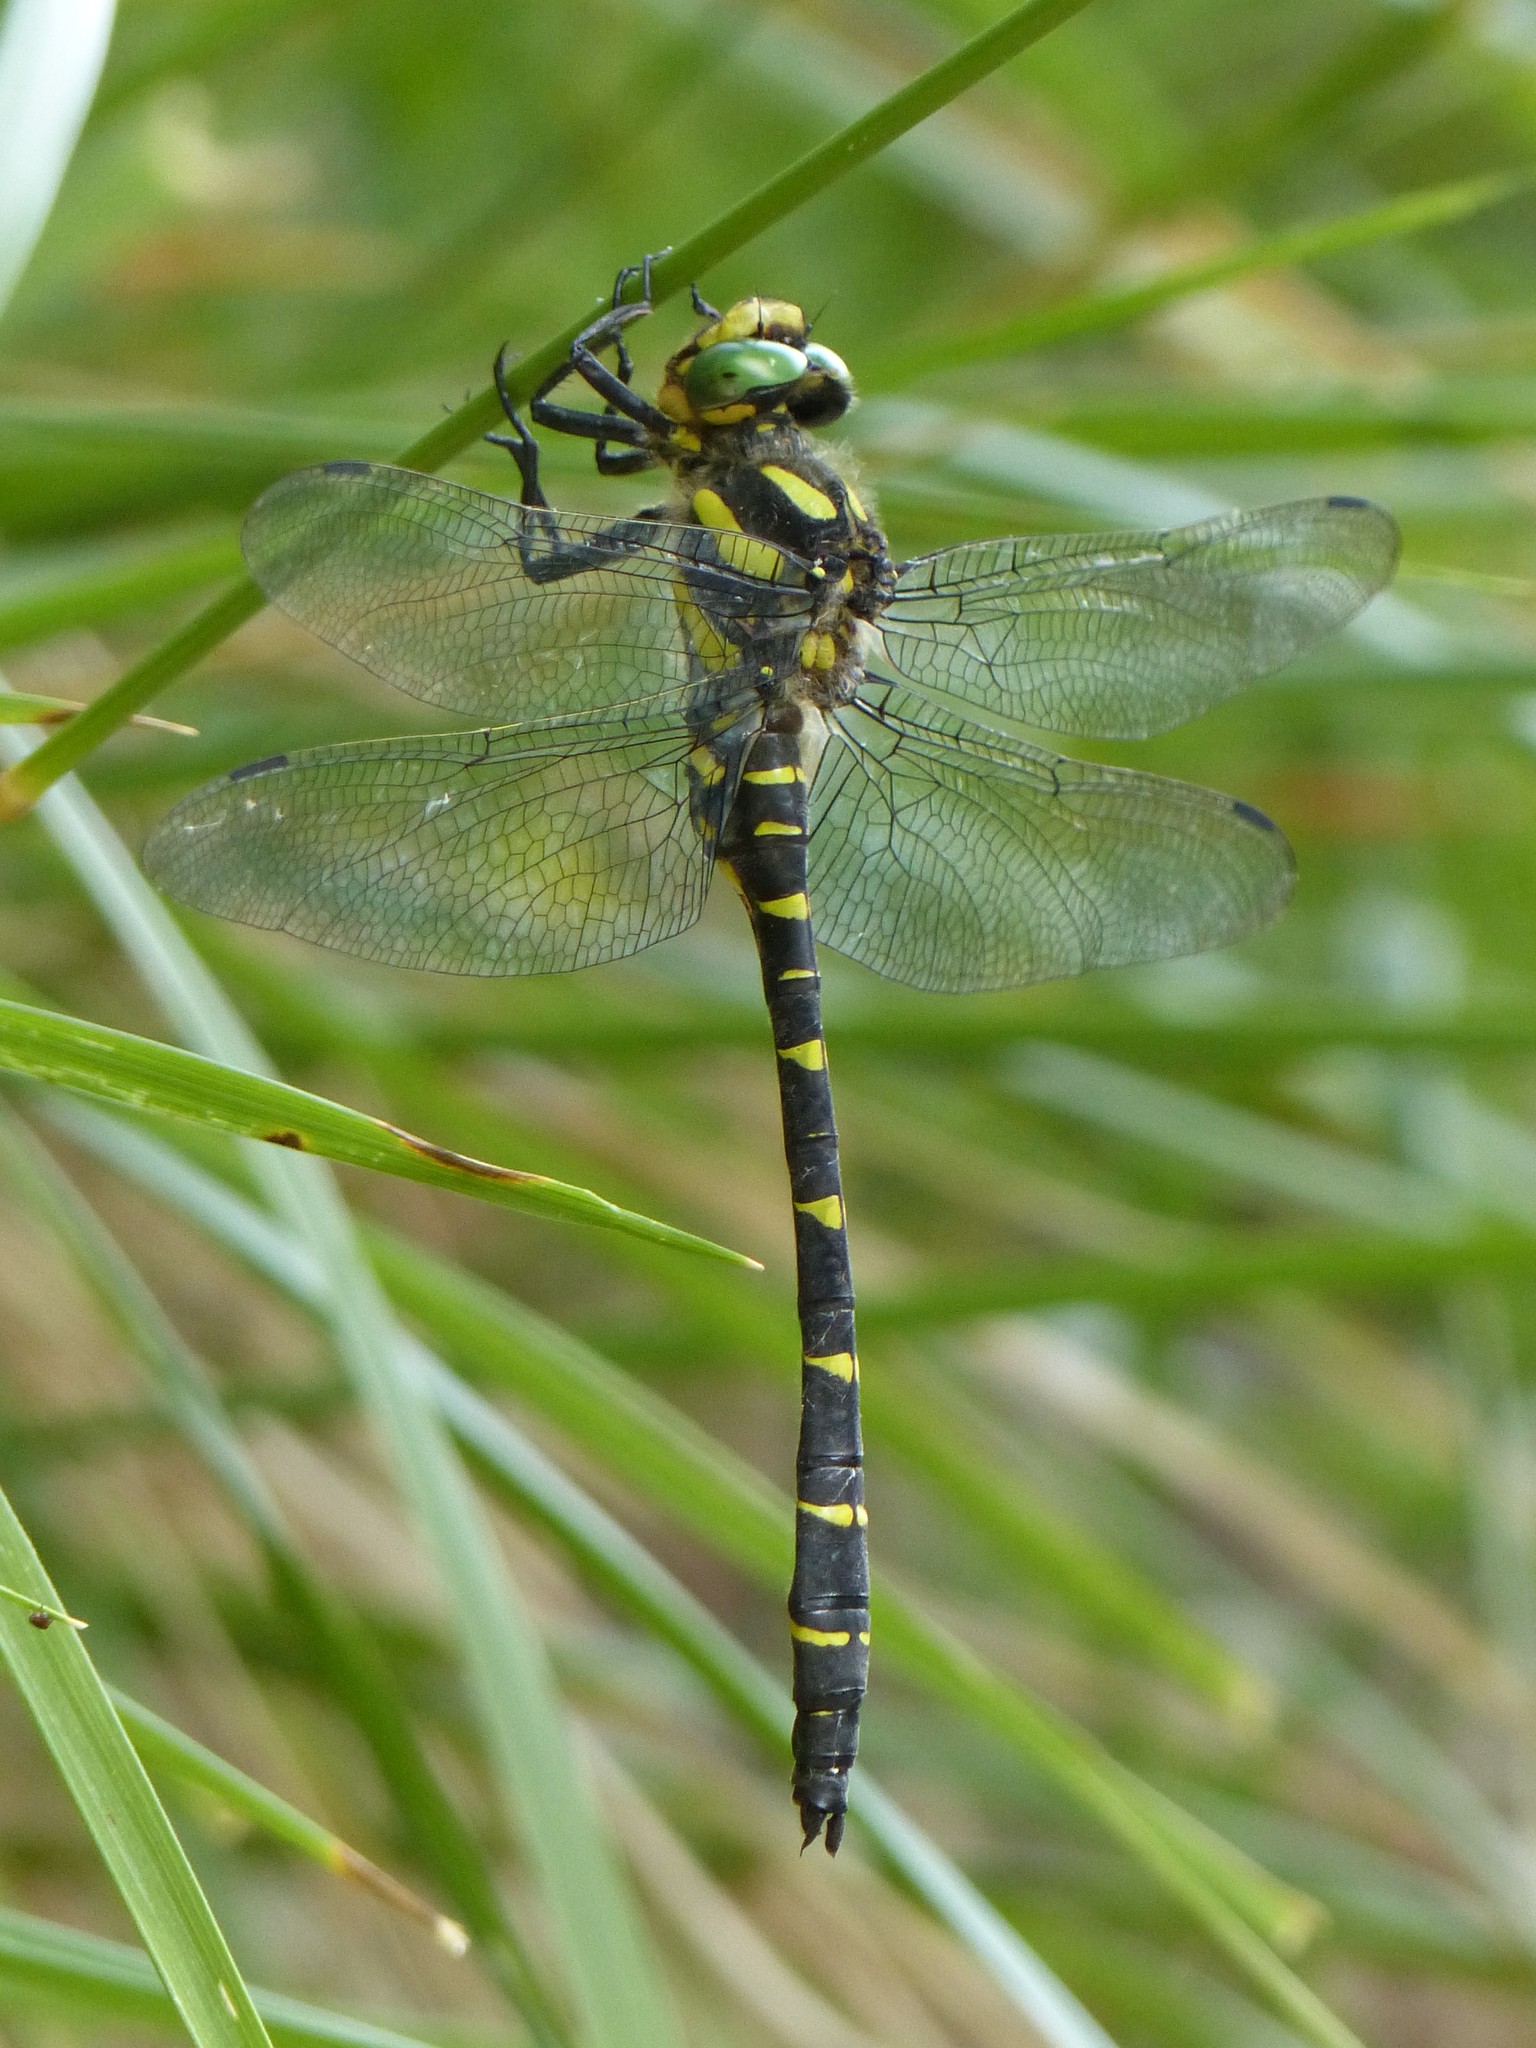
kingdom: Animalia
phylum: Arthropoda
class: Insecta
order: Odonata
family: Cordulegastridae
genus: Cordulegaster
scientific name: Cordulegaster bidentata
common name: Sombre goldenring
